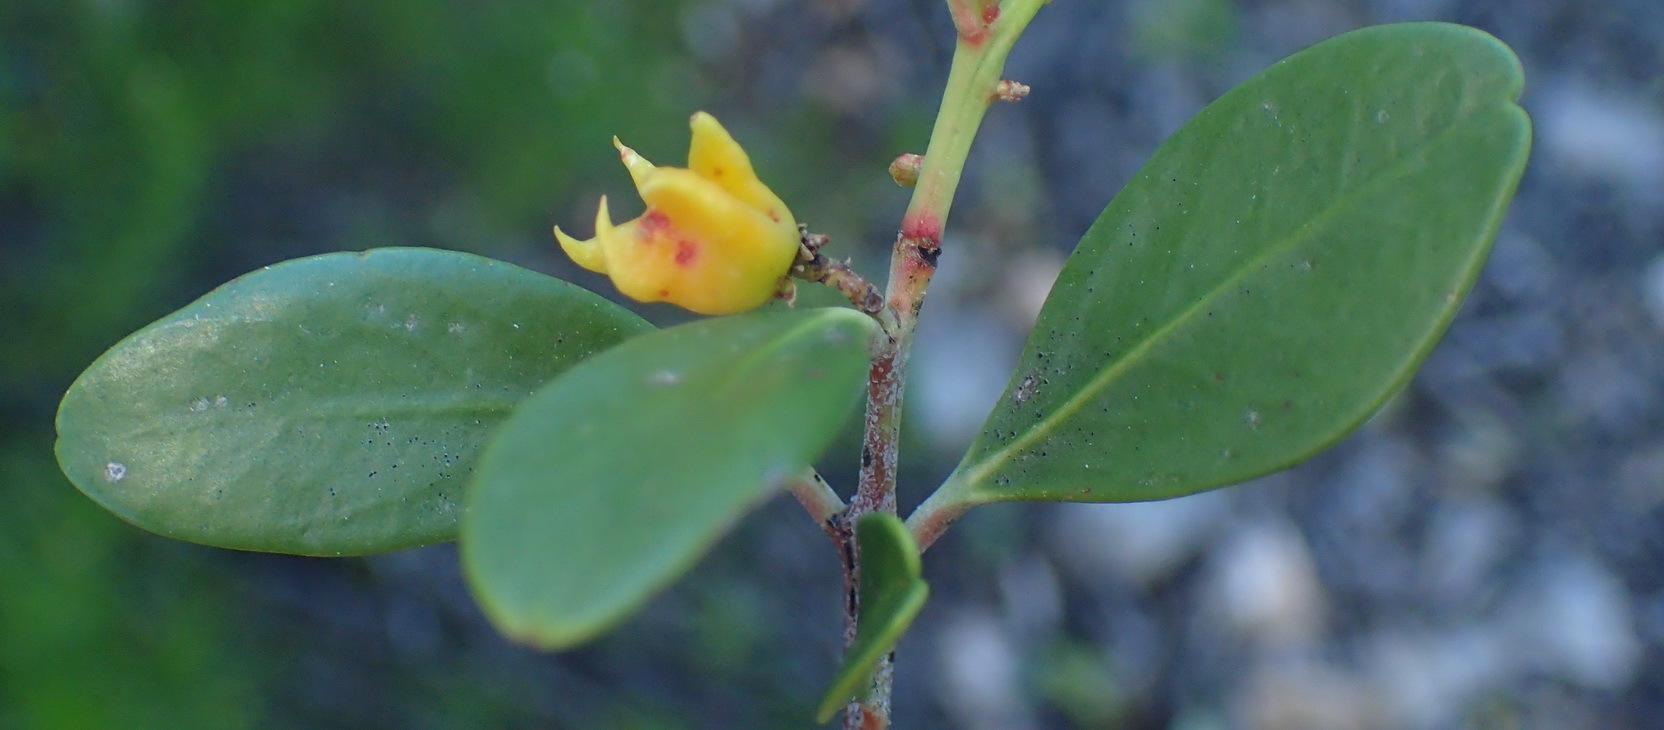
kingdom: Plantae
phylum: Tracheophyta
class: Magnoliopsida
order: Celastrales
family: Celastraceae
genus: Pterocelastrus
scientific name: Pterocelastrus tricuspidatus
